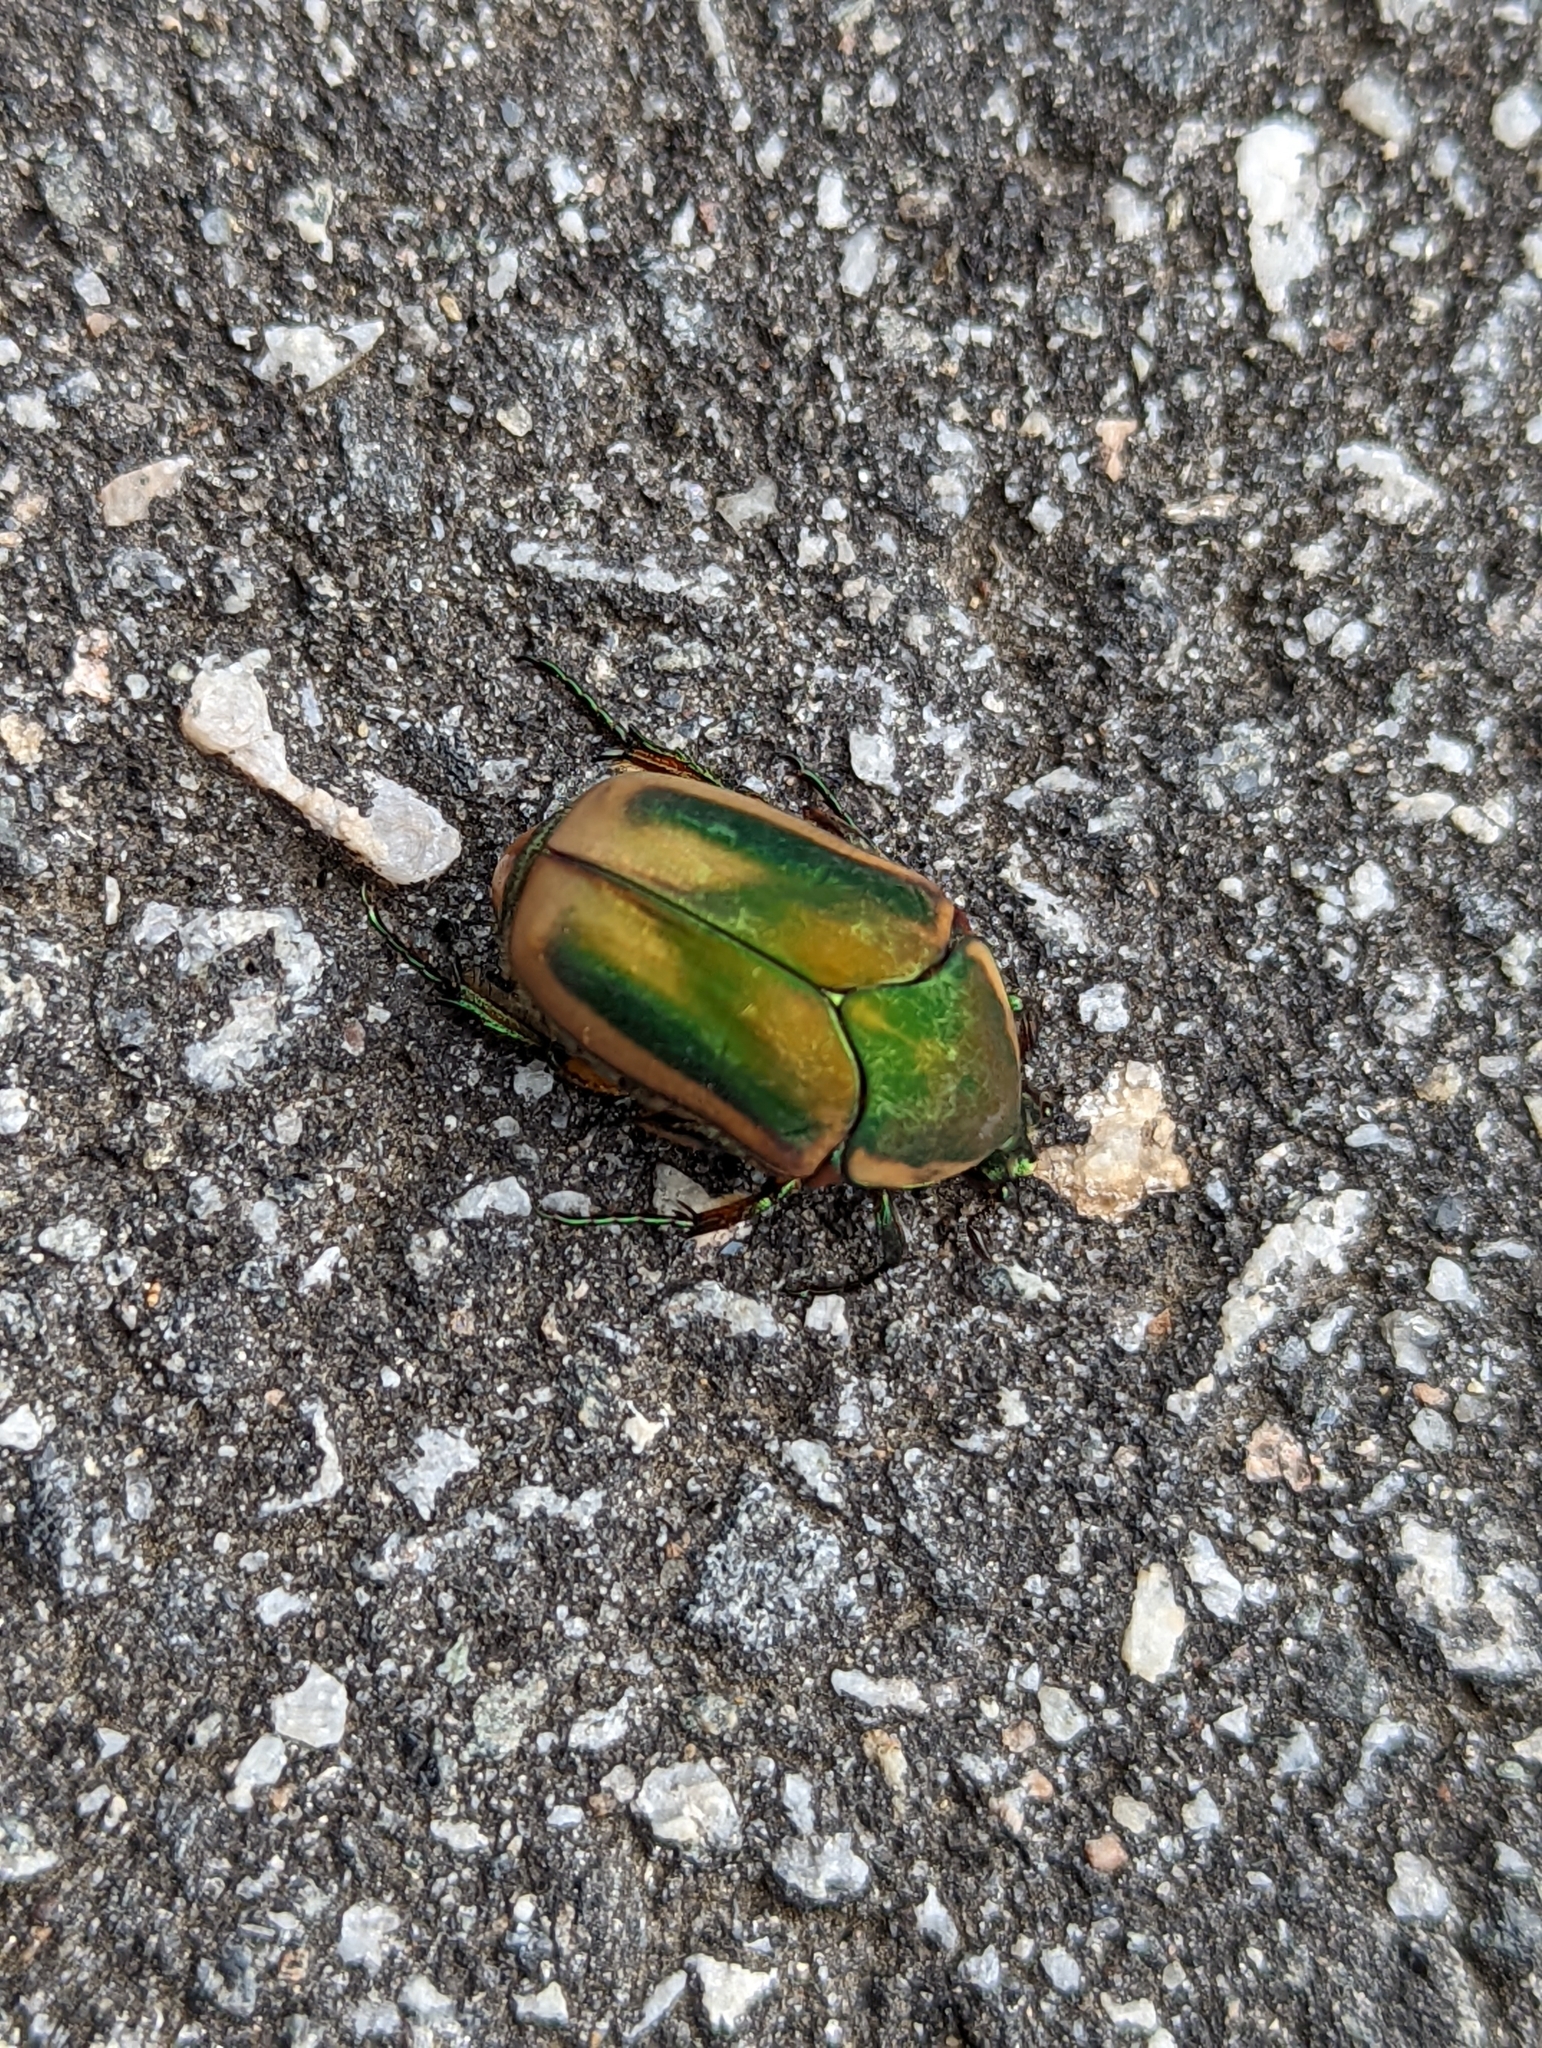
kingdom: Animalia
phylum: Arthropoda
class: Insecta
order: Coleoptera
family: Scarabaeidae
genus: Cotinis
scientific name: Cotinis nitida
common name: Common green june beetle
